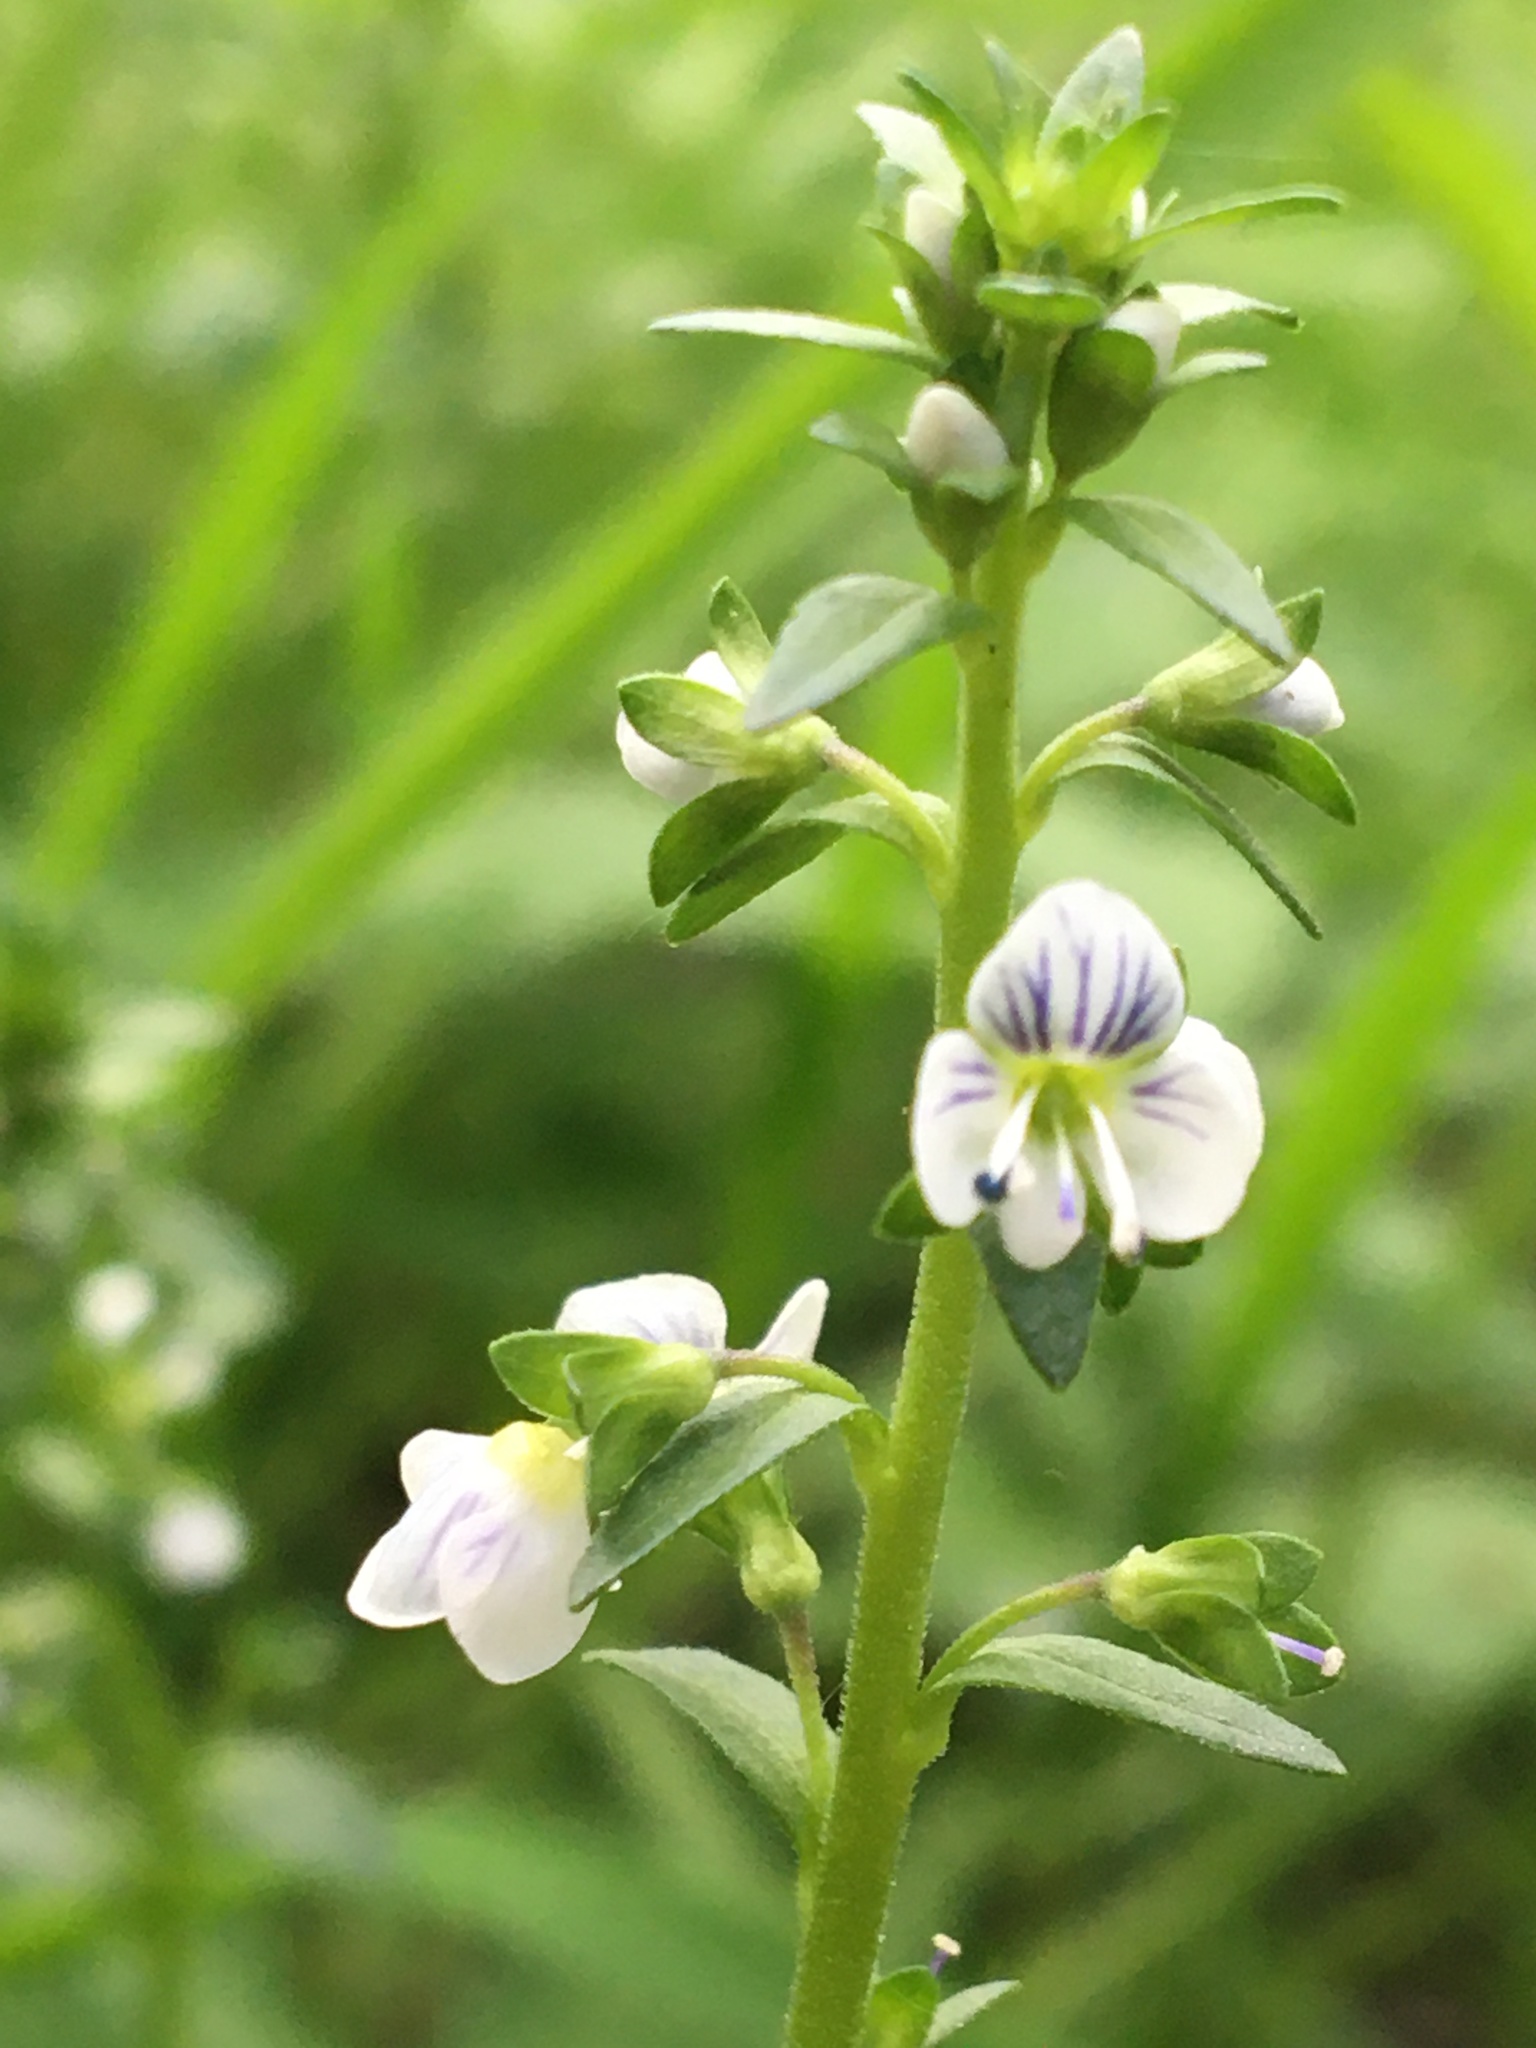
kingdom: Plantae
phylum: Tracheophyta
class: Magnoliopsida
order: Lamiales
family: Plantaginaceae
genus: Veronica
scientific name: Veronica serpyllifolia
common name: Thyme-leaved speedwell
